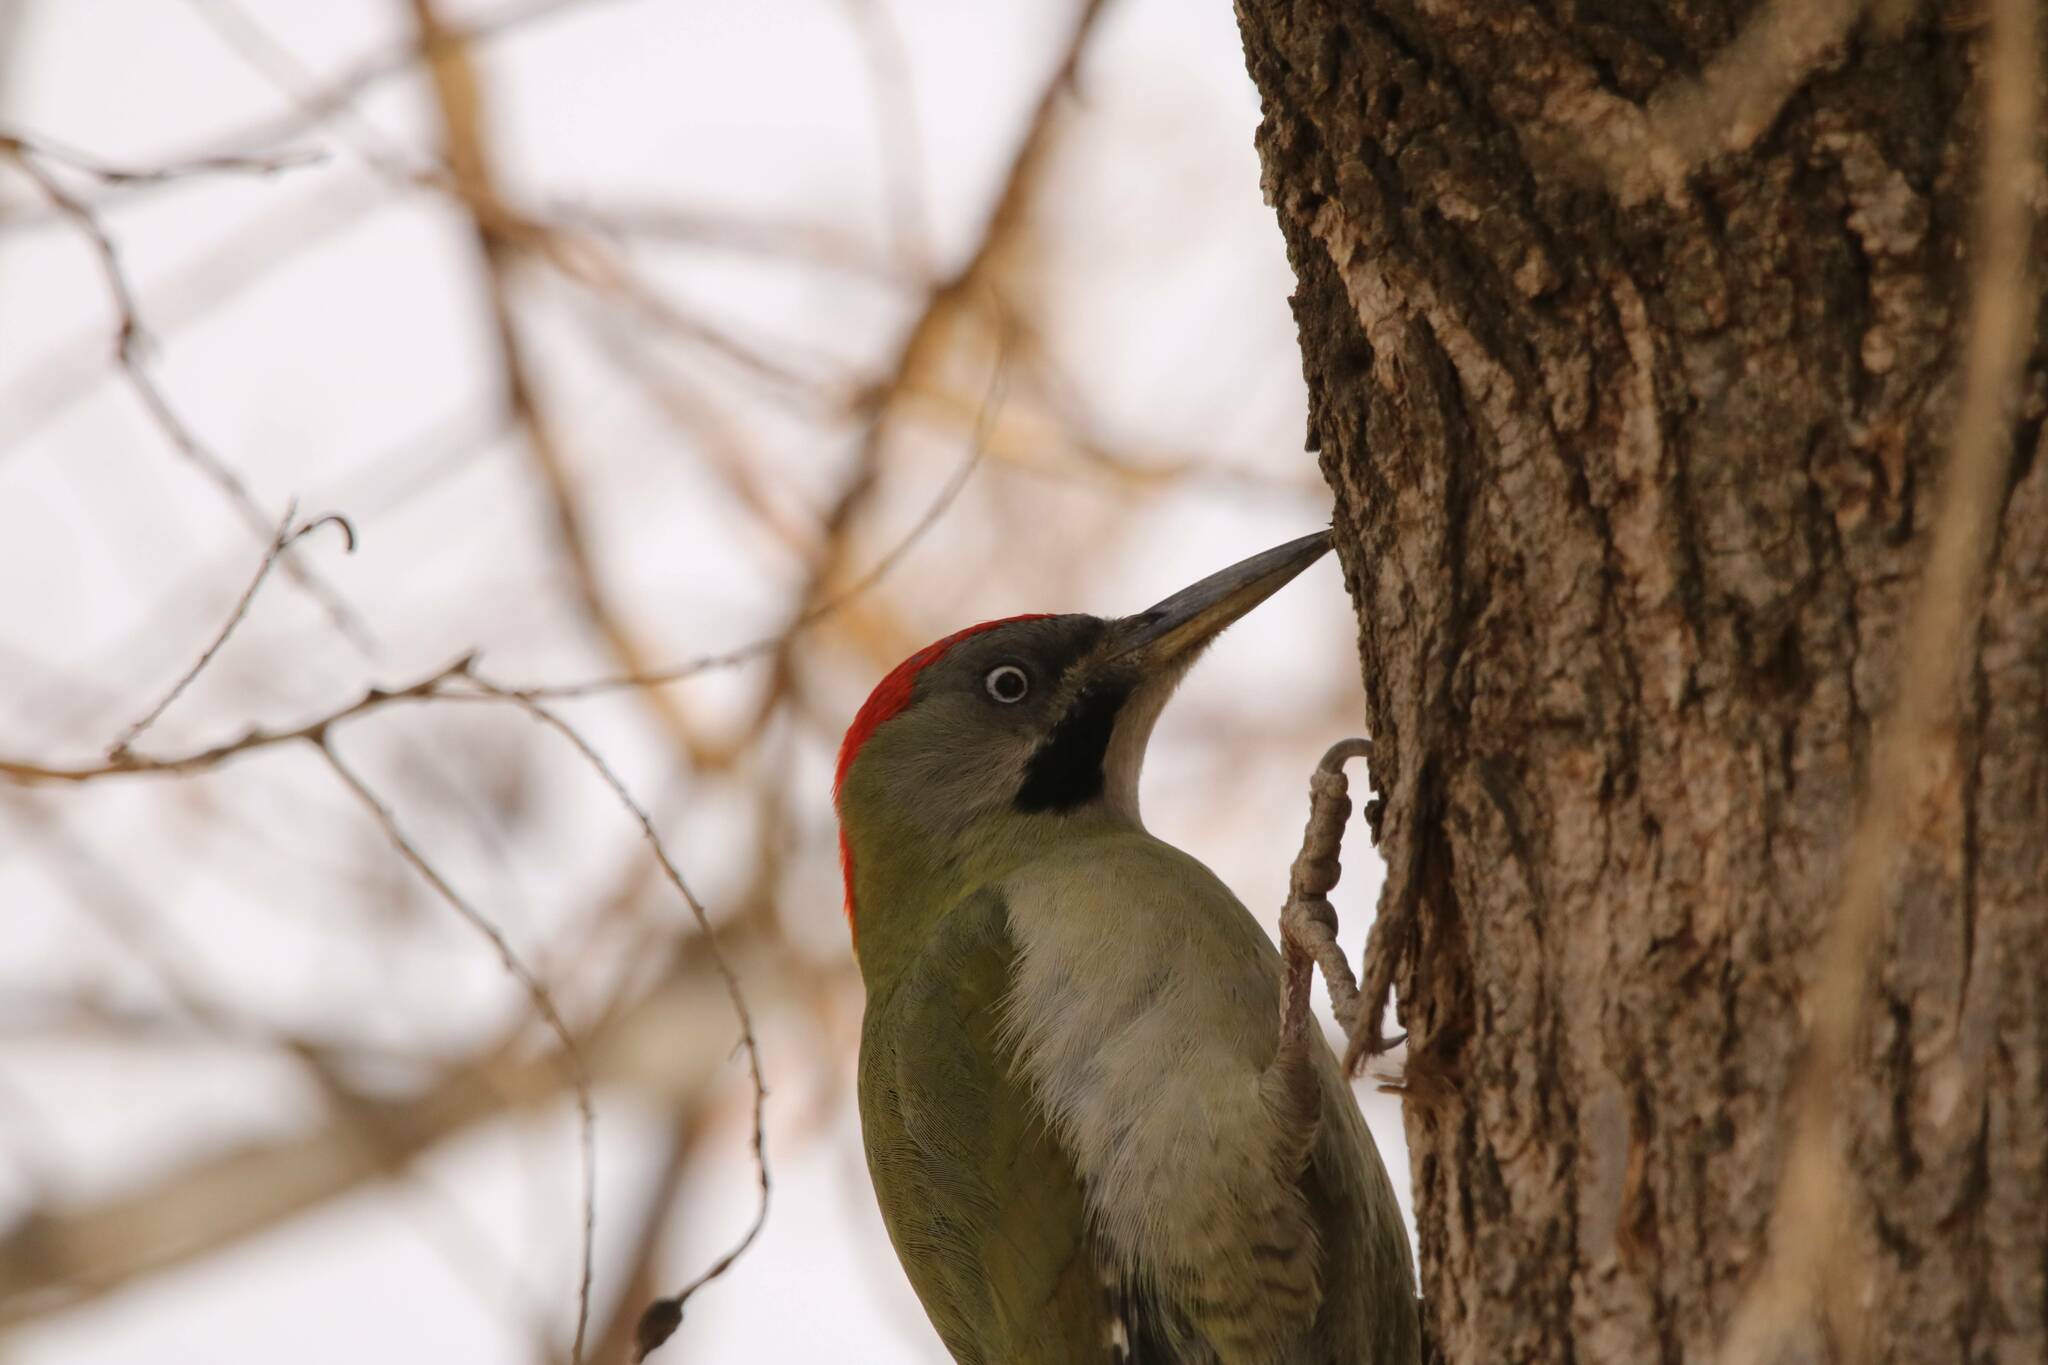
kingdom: Animalia
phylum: Chordata
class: Aves
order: Piciformes
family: Picidae
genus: Picus
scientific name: Picus vaillantii
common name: Levaillant's woodpecker
